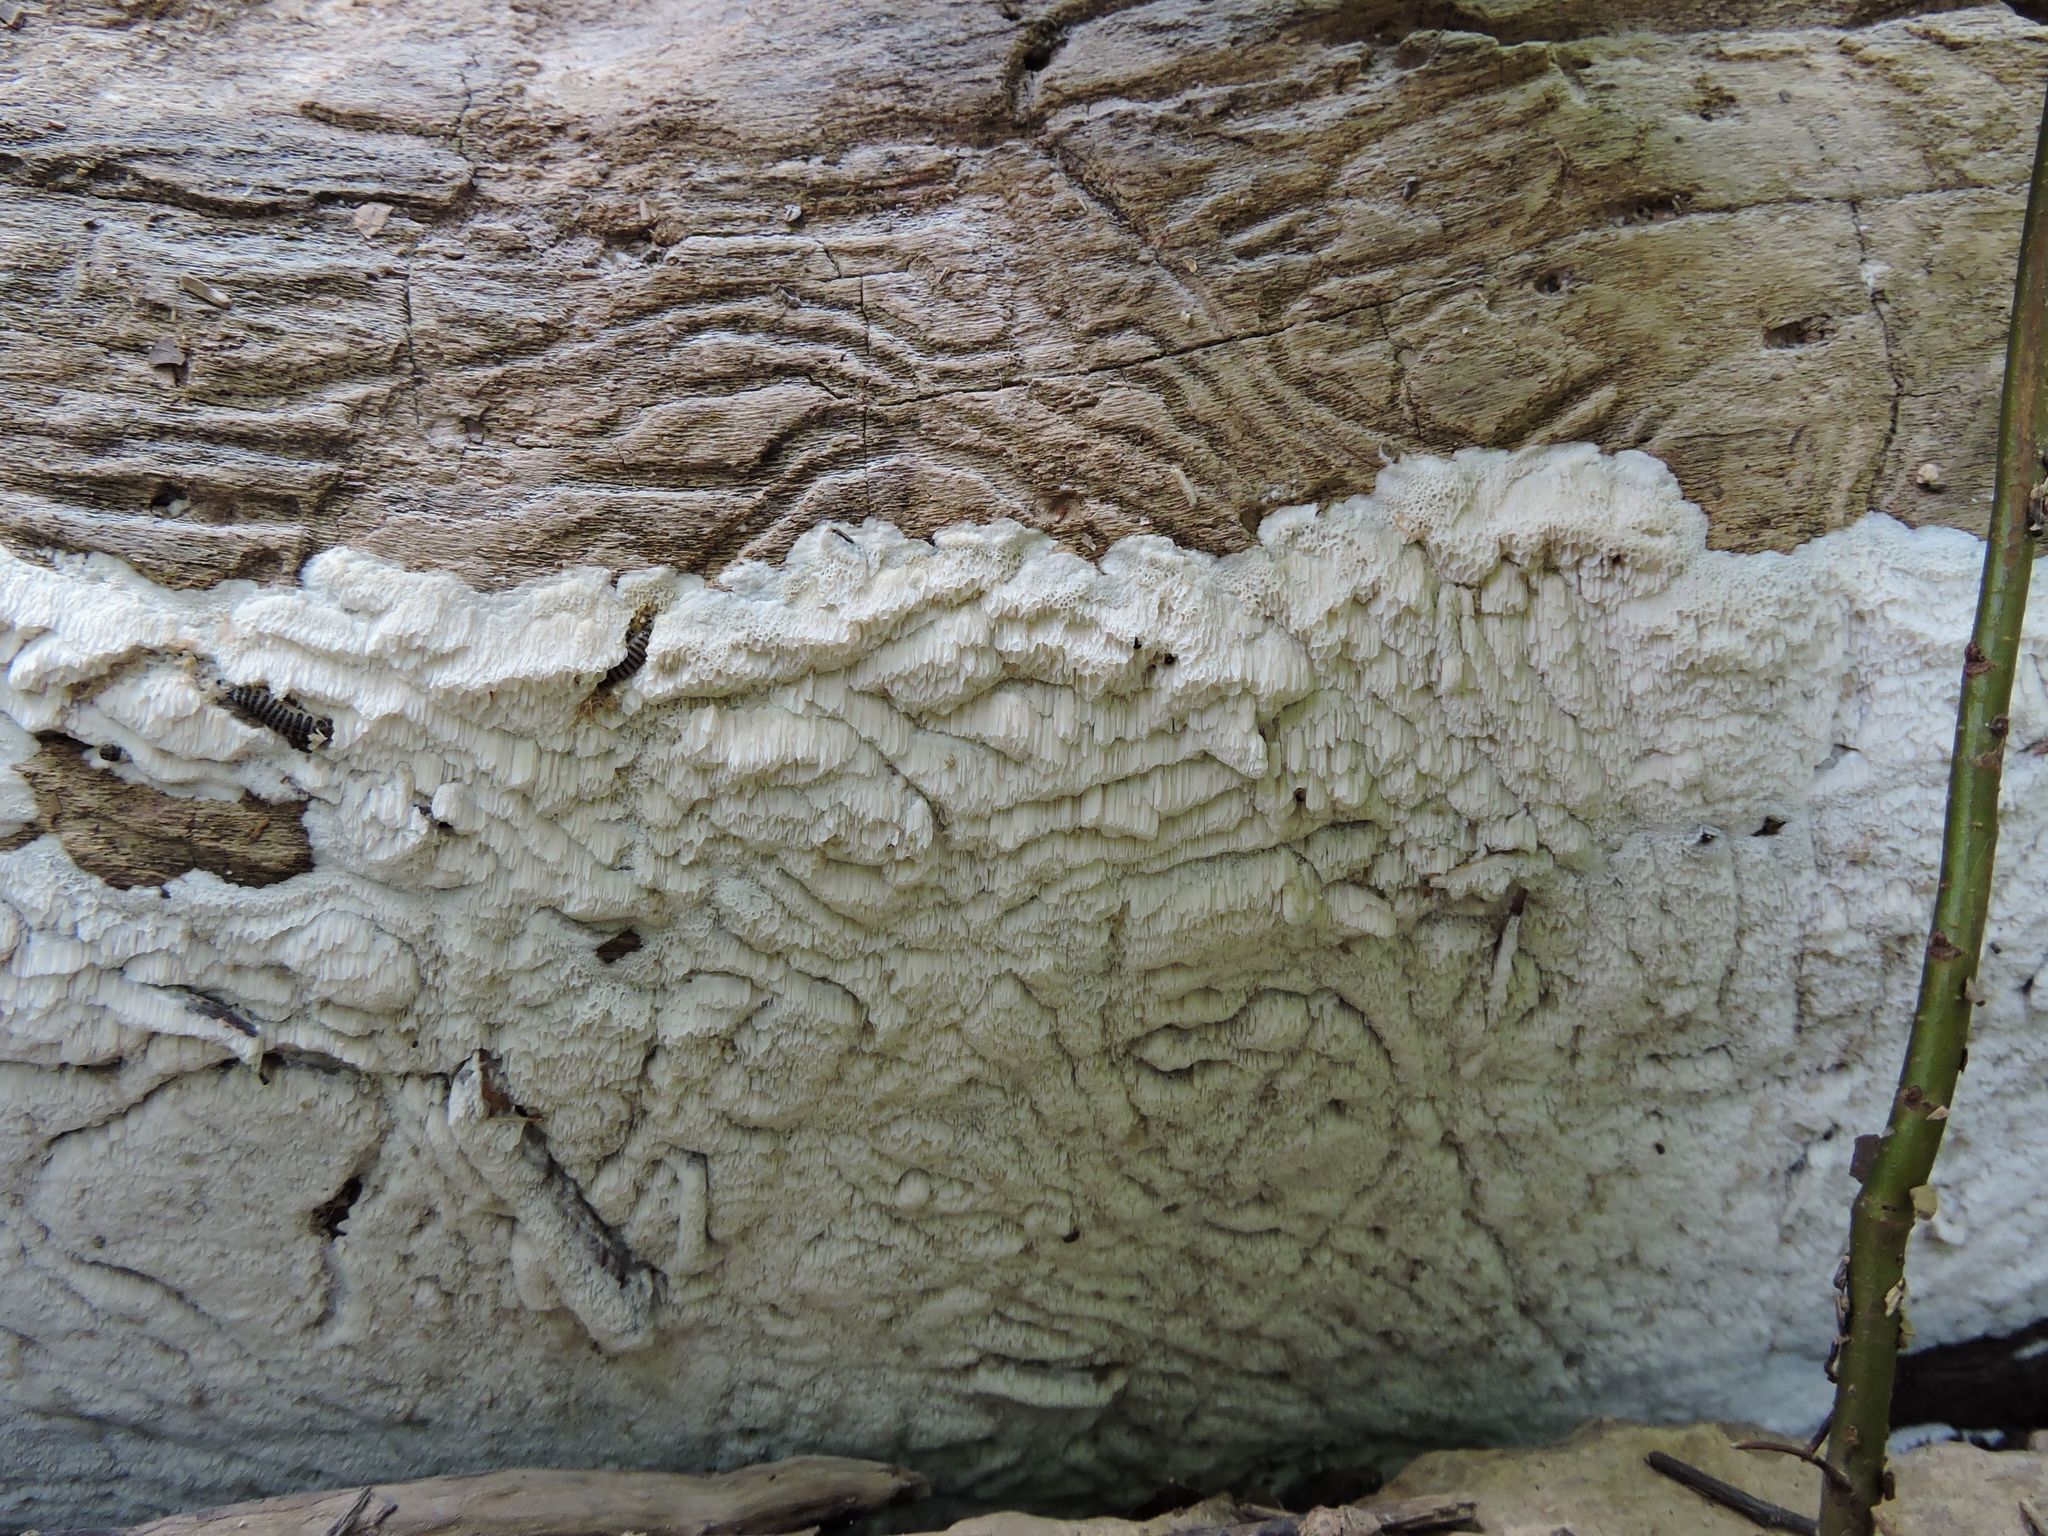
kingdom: Fungi
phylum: Basidiomycota
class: Agaricomycetes
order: Polyporales
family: Irpicaceae
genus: Irpex
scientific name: Irpex lacteus
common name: Milk-white toothed polypore
